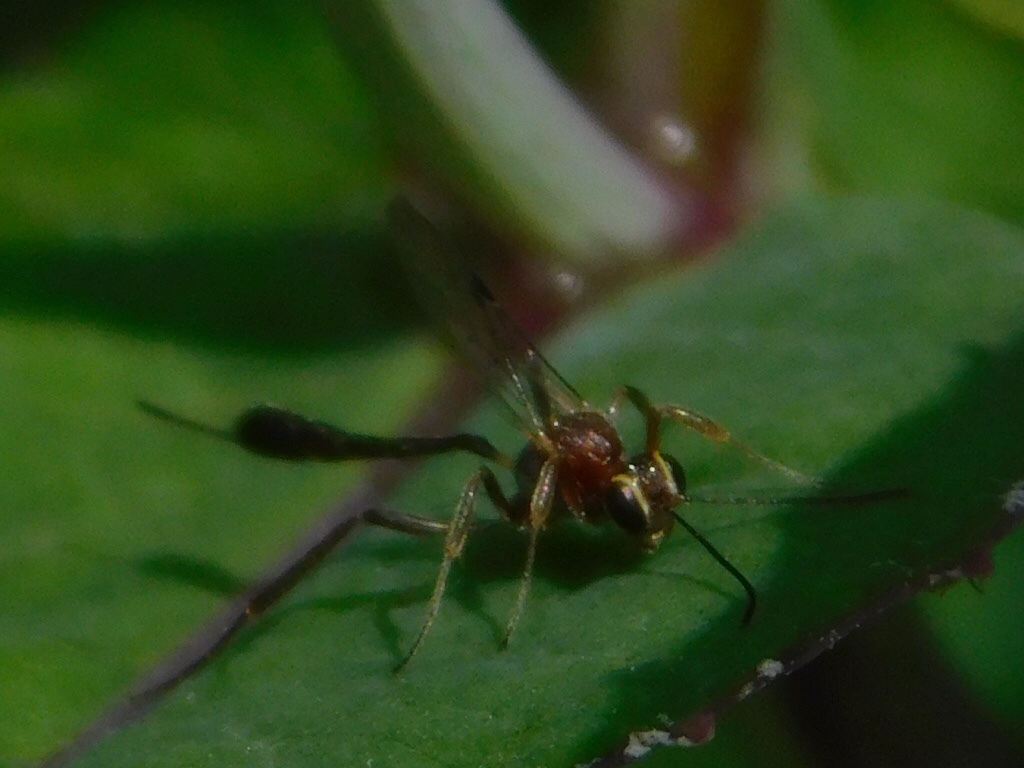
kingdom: Animalia
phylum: Arthropoda
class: Insecta
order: Hymenoptera
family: Ichneumonidae
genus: Anomalon
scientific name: Anomalon
